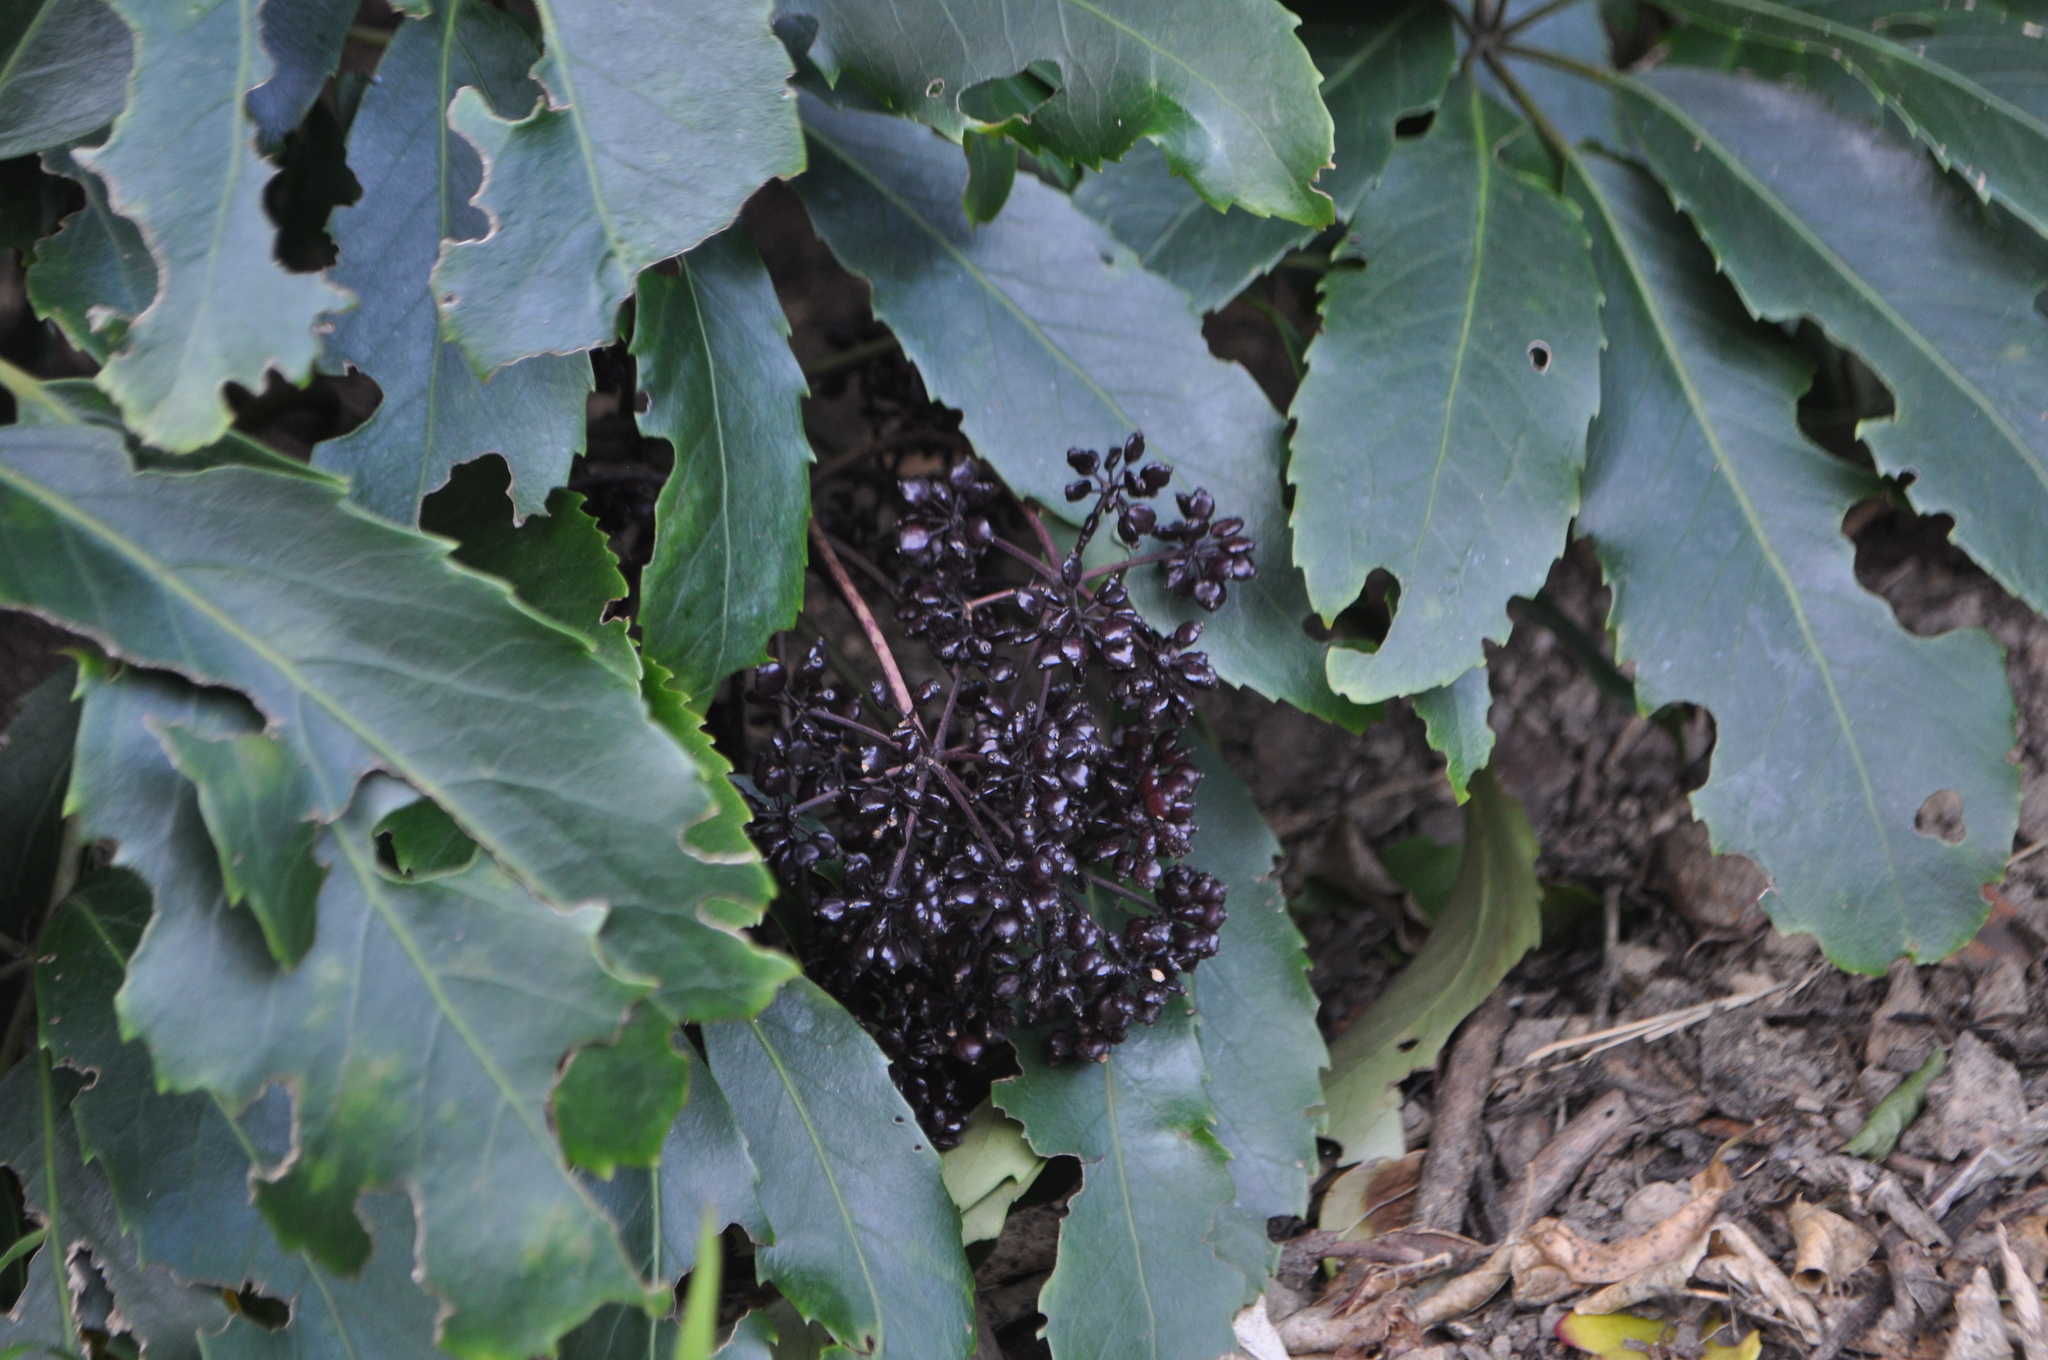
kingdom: Plantae
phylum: Tracheophyta
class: Magnoliopsida
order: Apiales
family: Araliaceae
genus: Neopanax
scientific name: Neopanax arboreus
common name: Five-fingers
